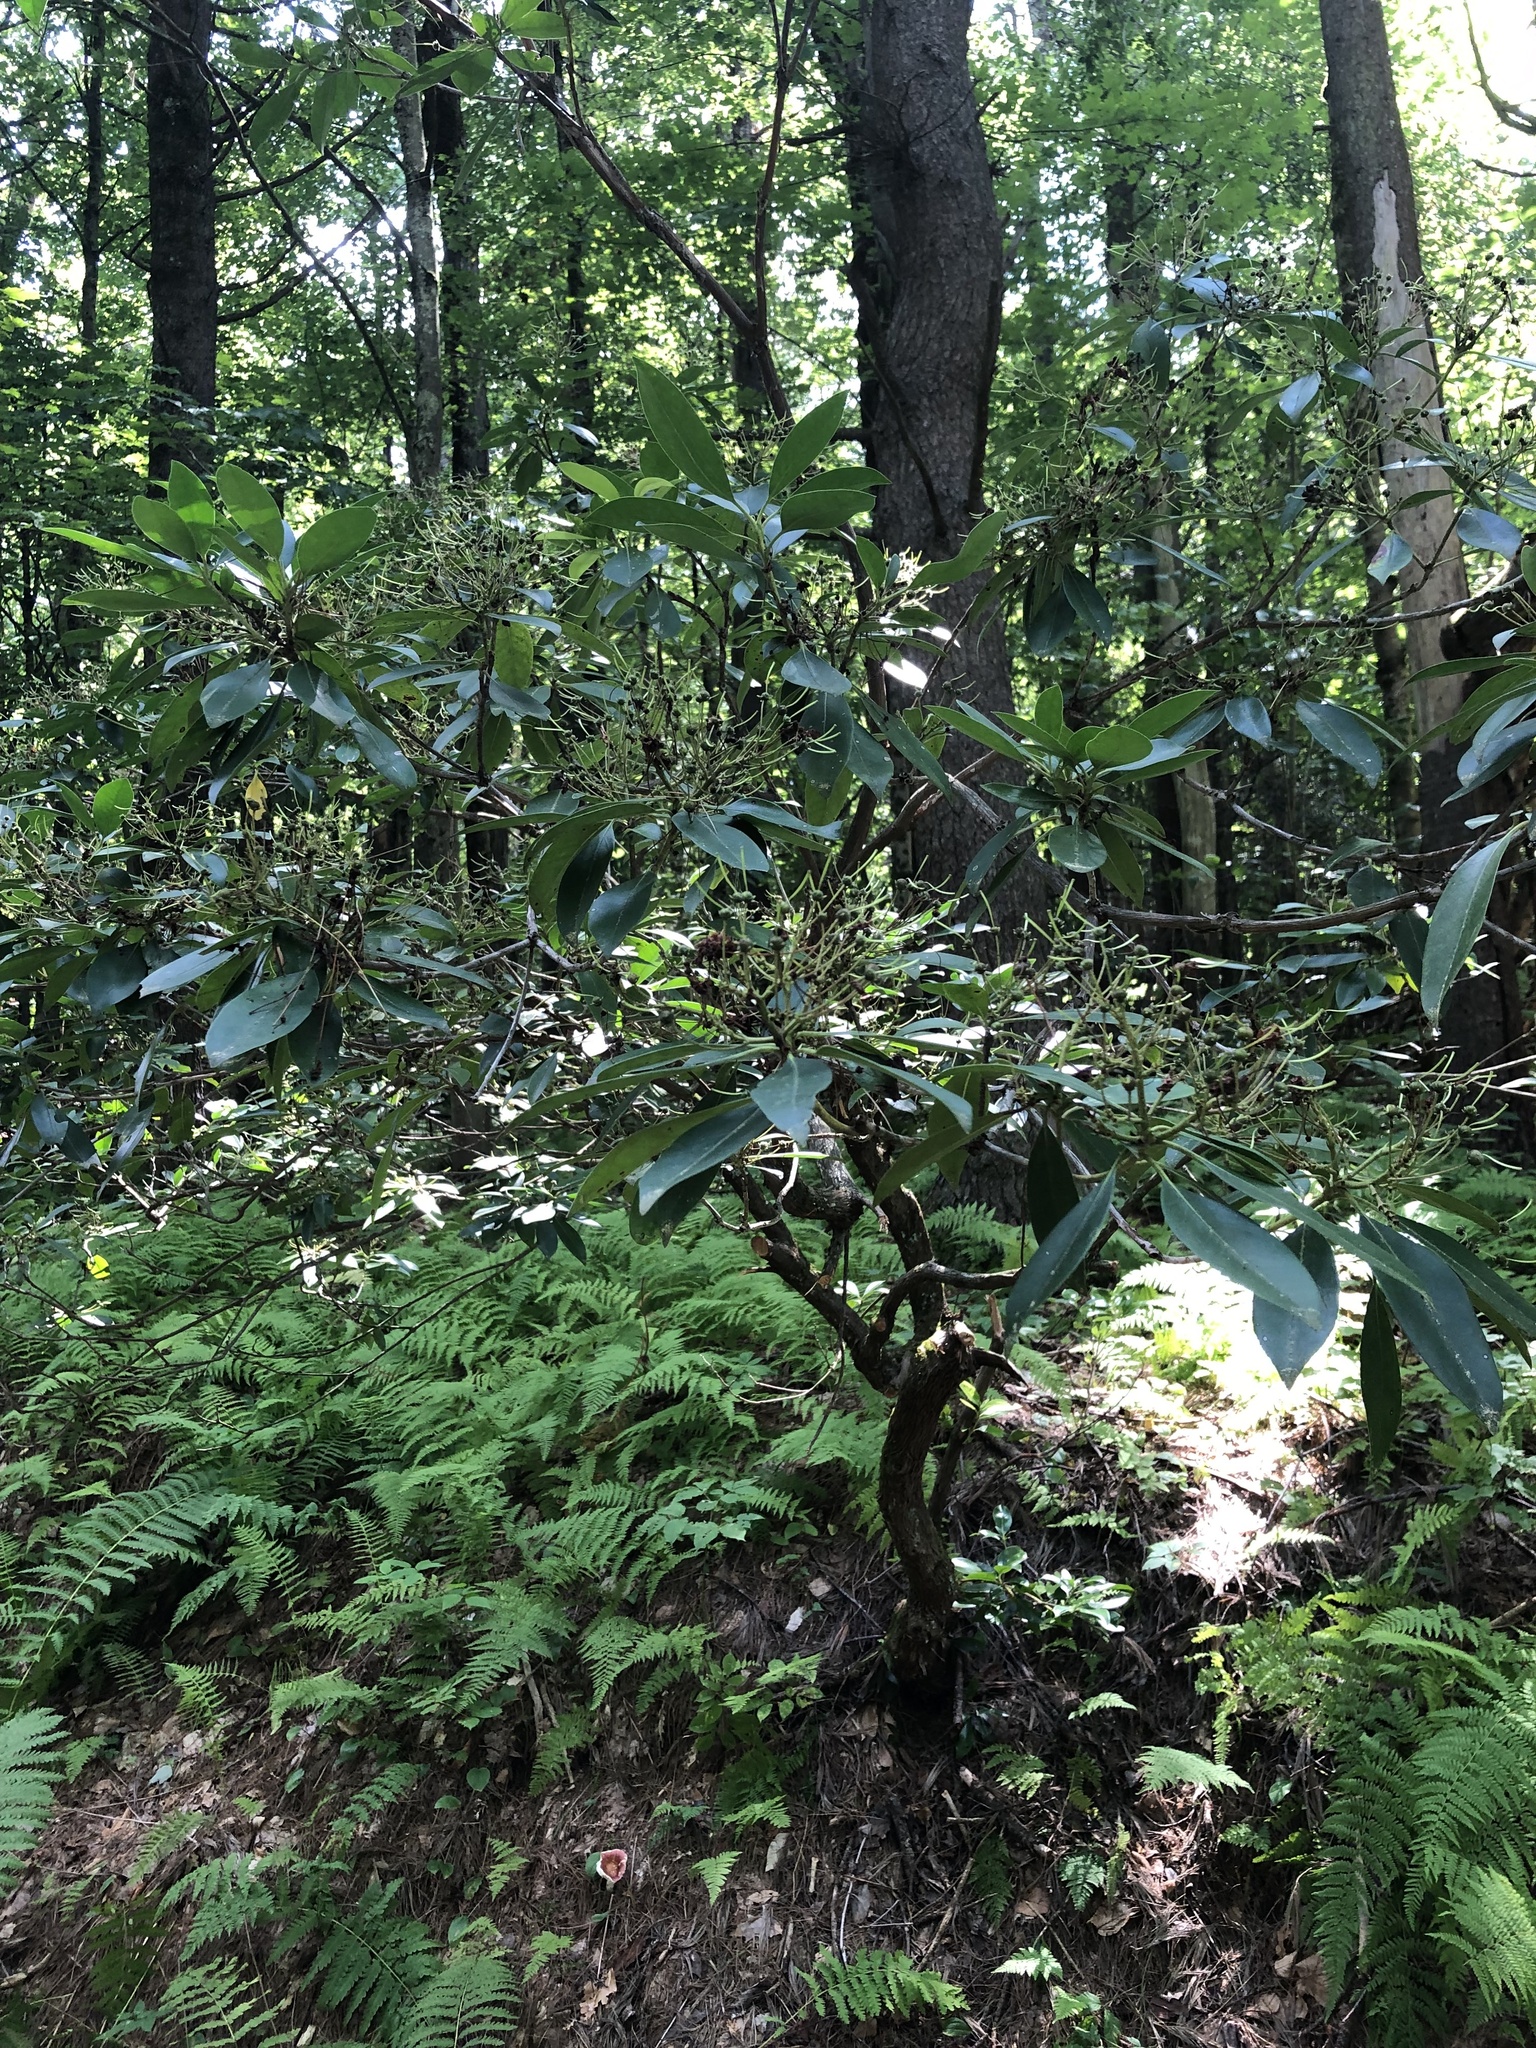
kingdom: Plantae
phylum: Tracheophyta
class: Magnoliopsida
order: Ericales
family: Ericaceae
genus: Kalmia
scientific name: Kalmia latifolia
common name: Mountain-laurel
